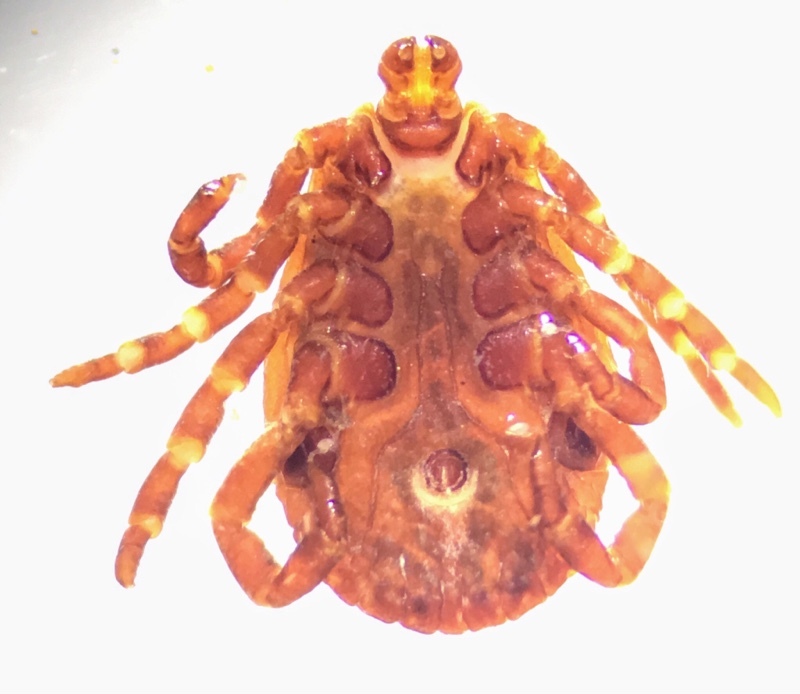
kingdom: Animalia
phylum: Arthropoda
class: Arachnida
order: Ixodida
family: Ixodidae
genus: Dermacentor
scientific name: Dermacentor marginatus
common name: Ornate sheep tick
